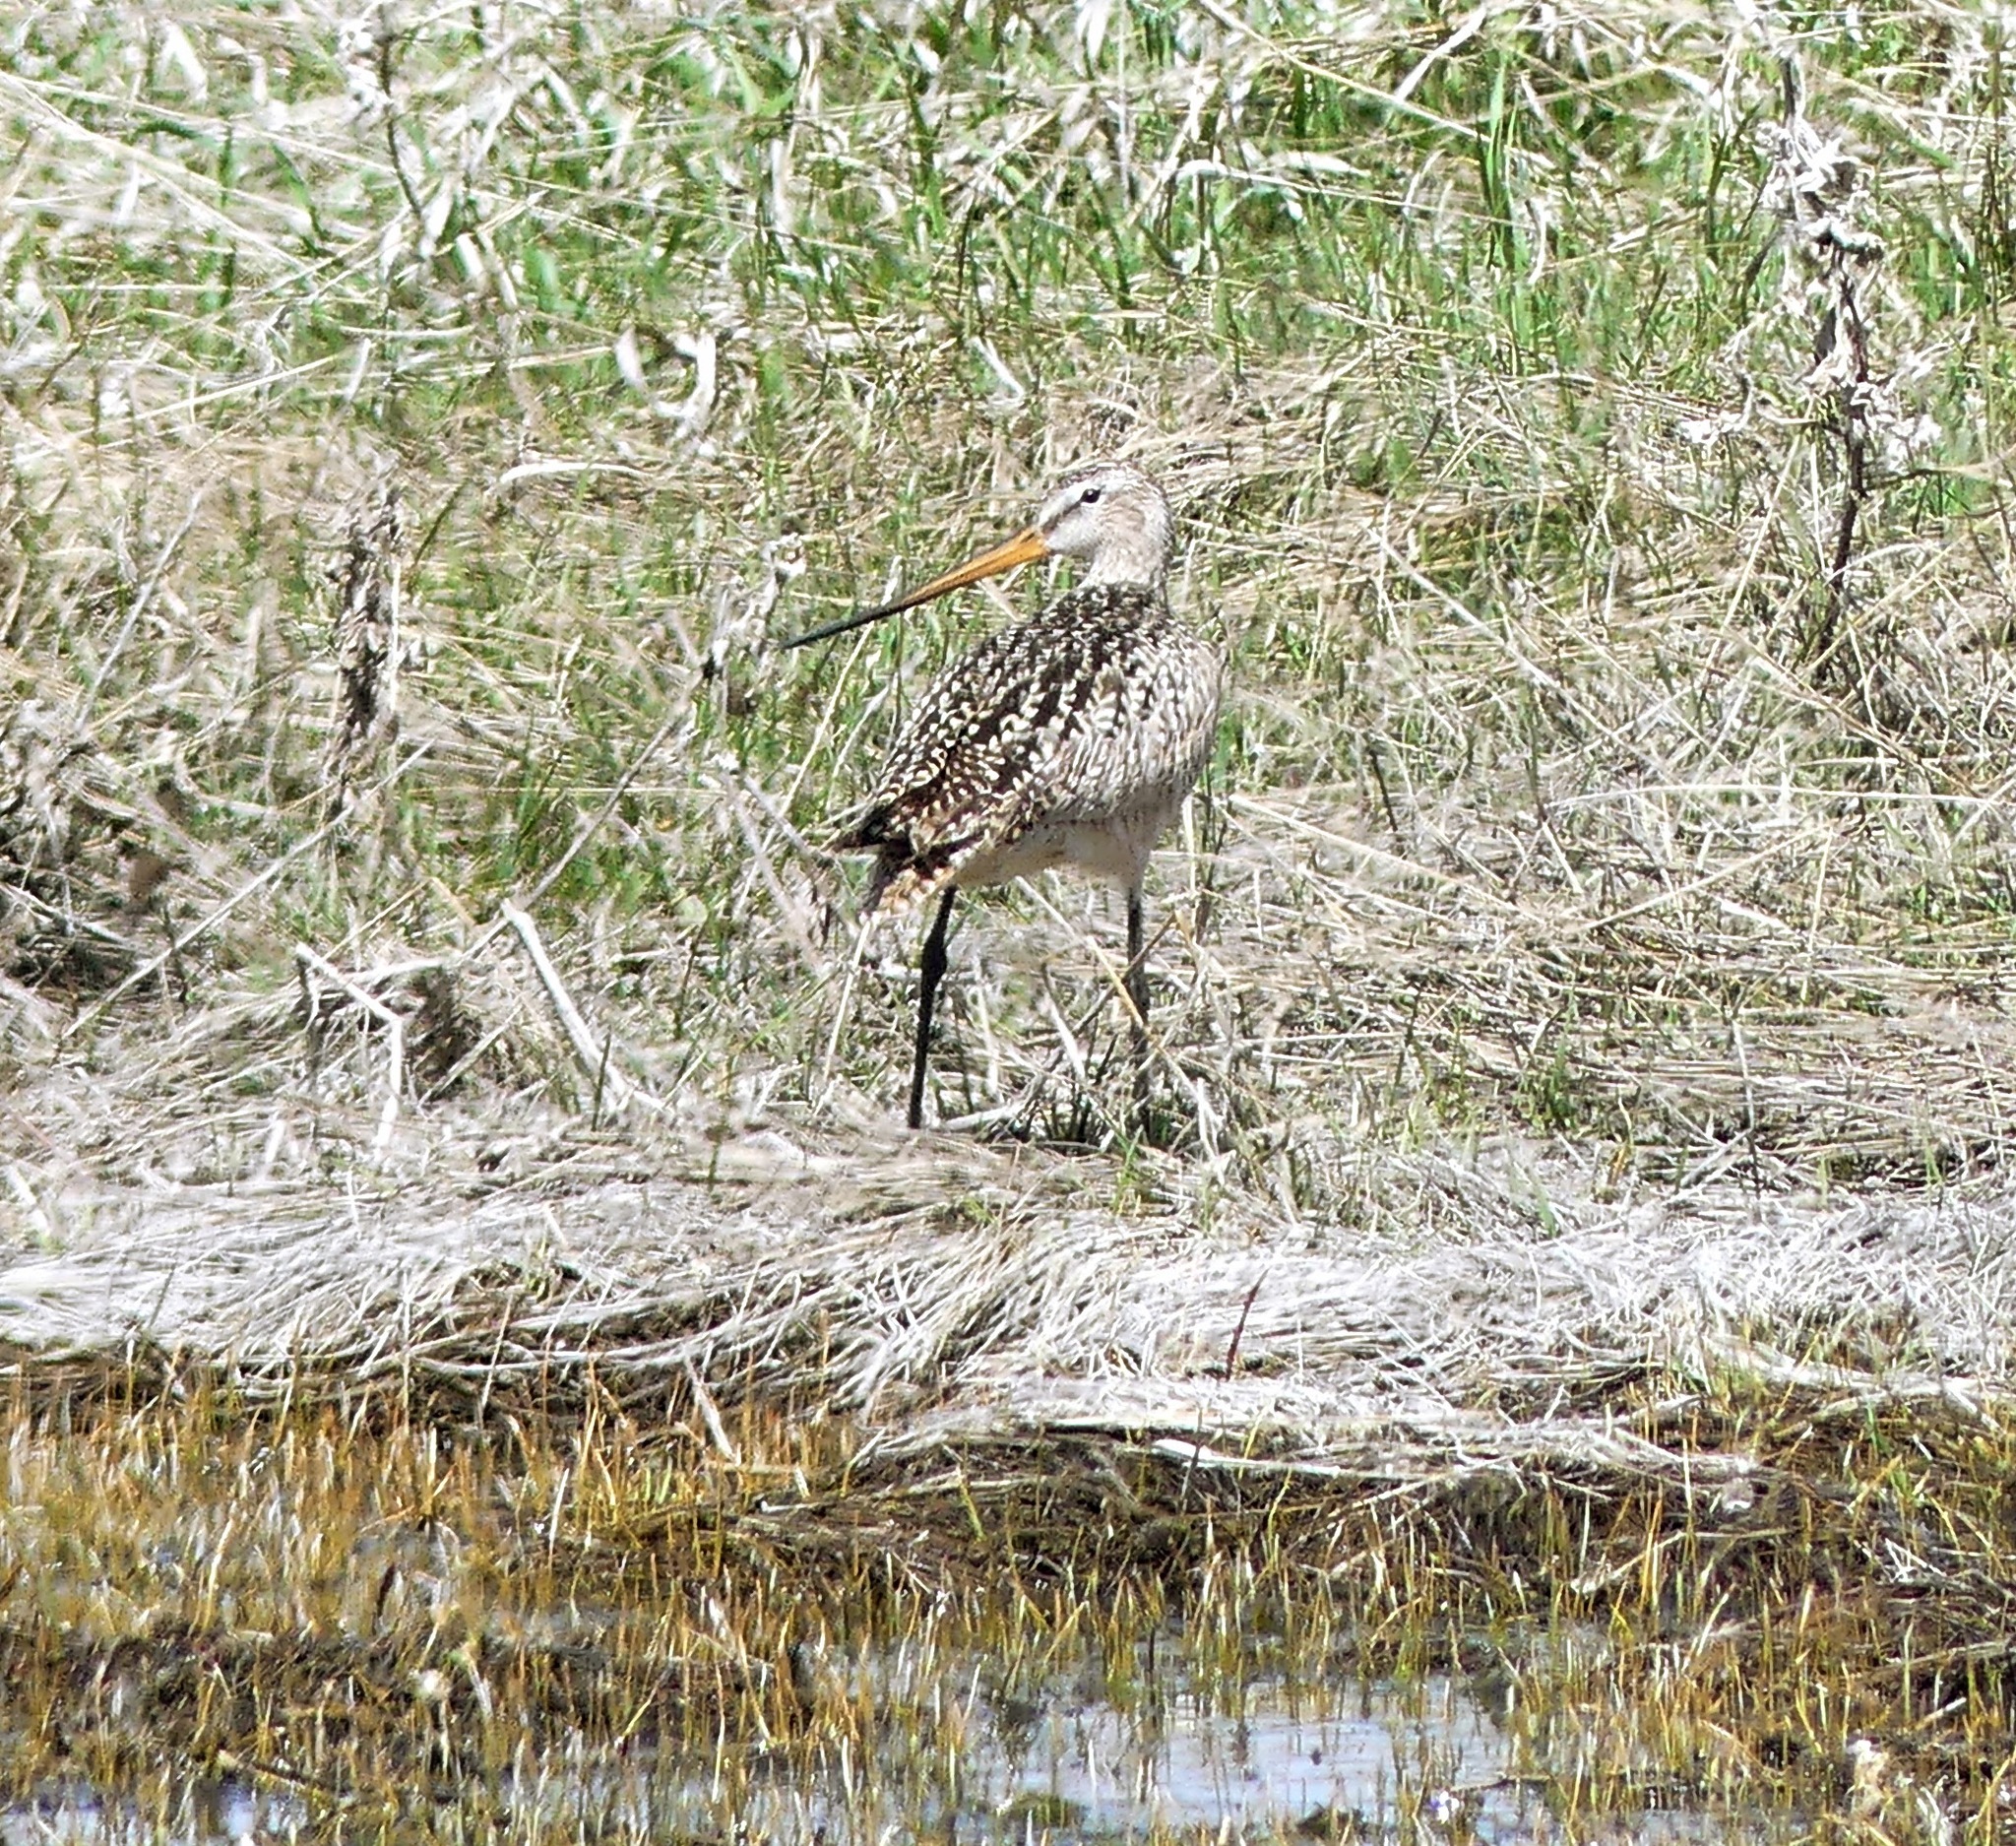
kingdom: Animalia
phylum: Chordata
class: Aves
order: Pelecaniformes
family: Ardeidae
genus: Ardea
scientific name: Ardea herodias
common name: Great blue heron
